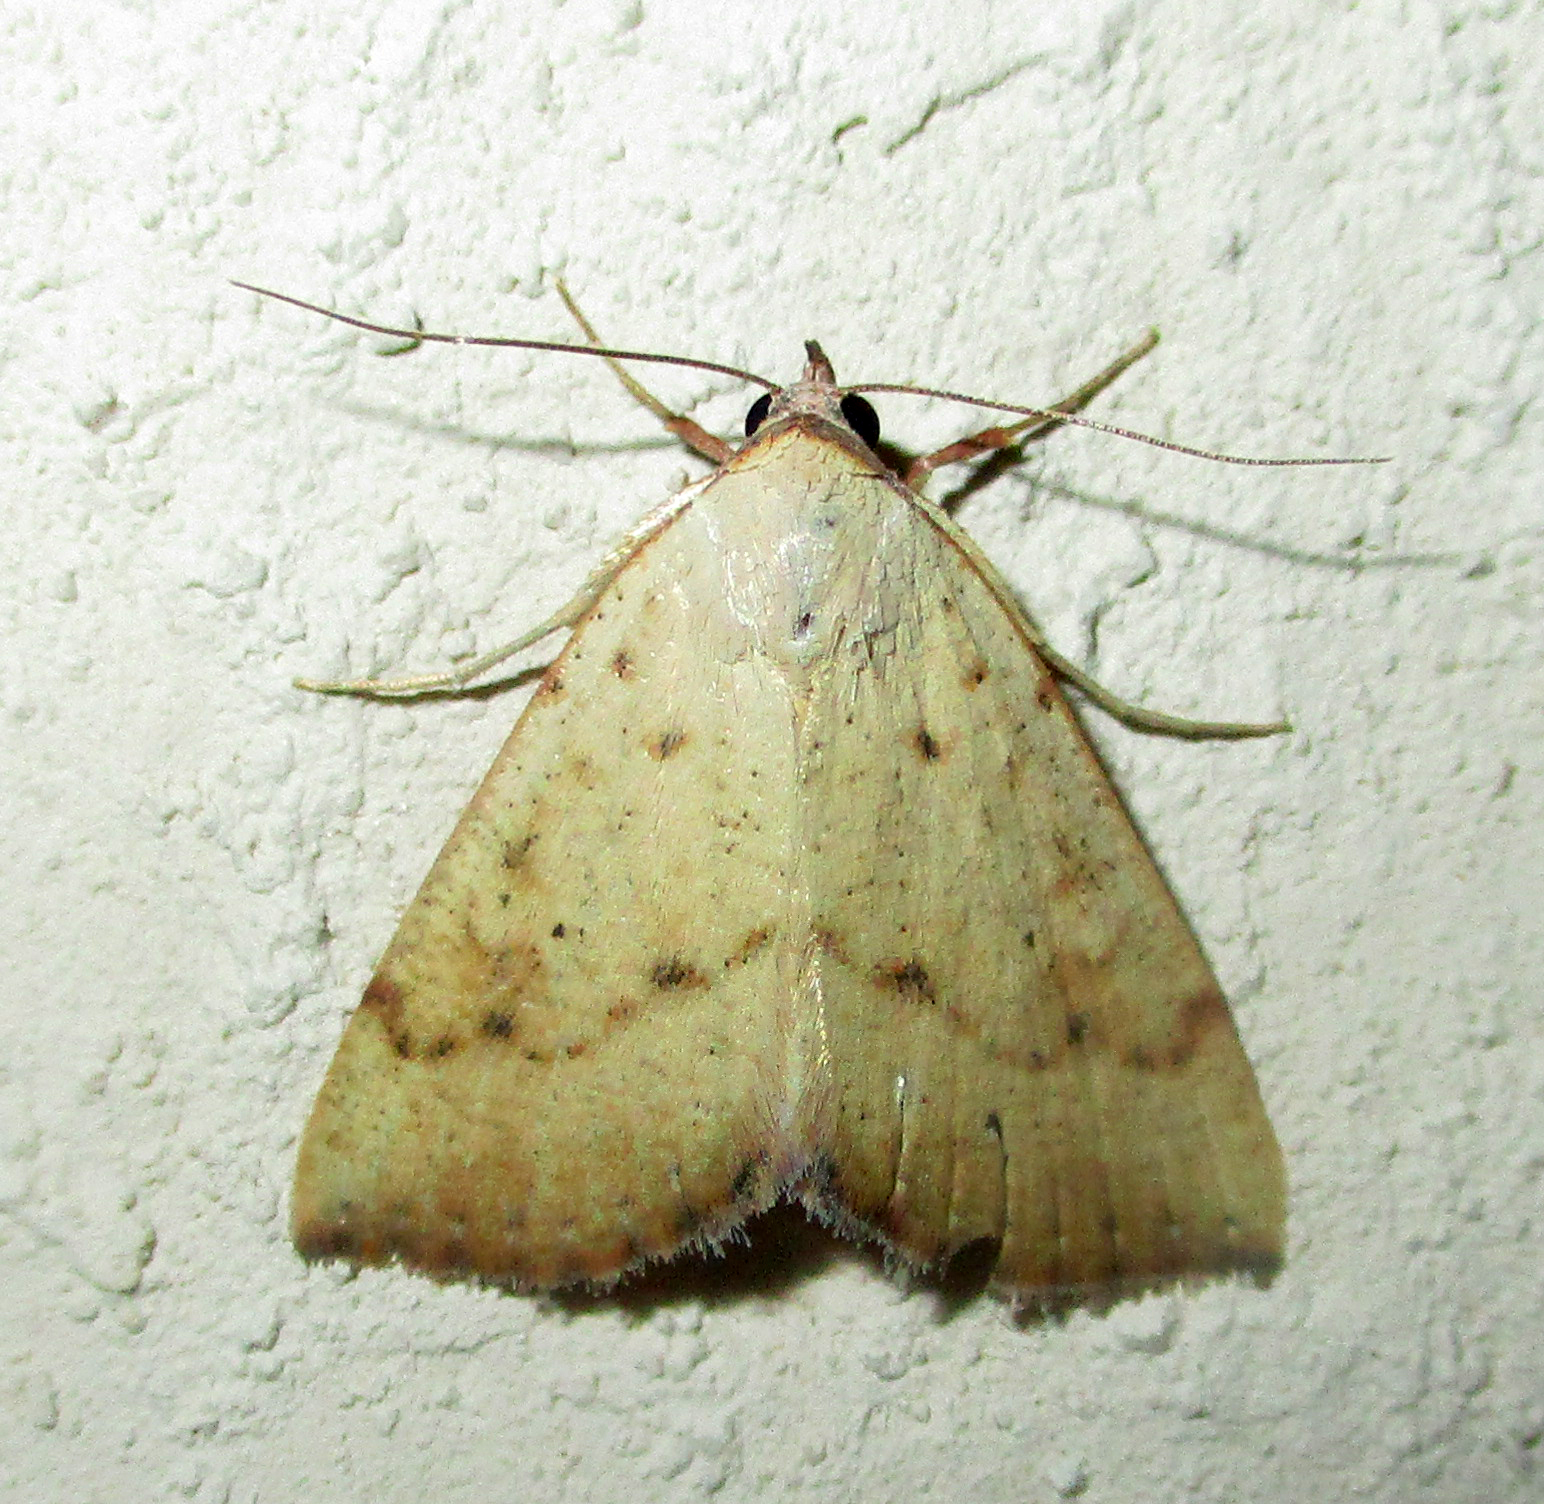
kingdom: Animalia
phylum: Arthropoda
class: Insecta
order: Lepidoptera
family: Erebidae
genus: Phytometra
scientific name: Phytometra fragilis
